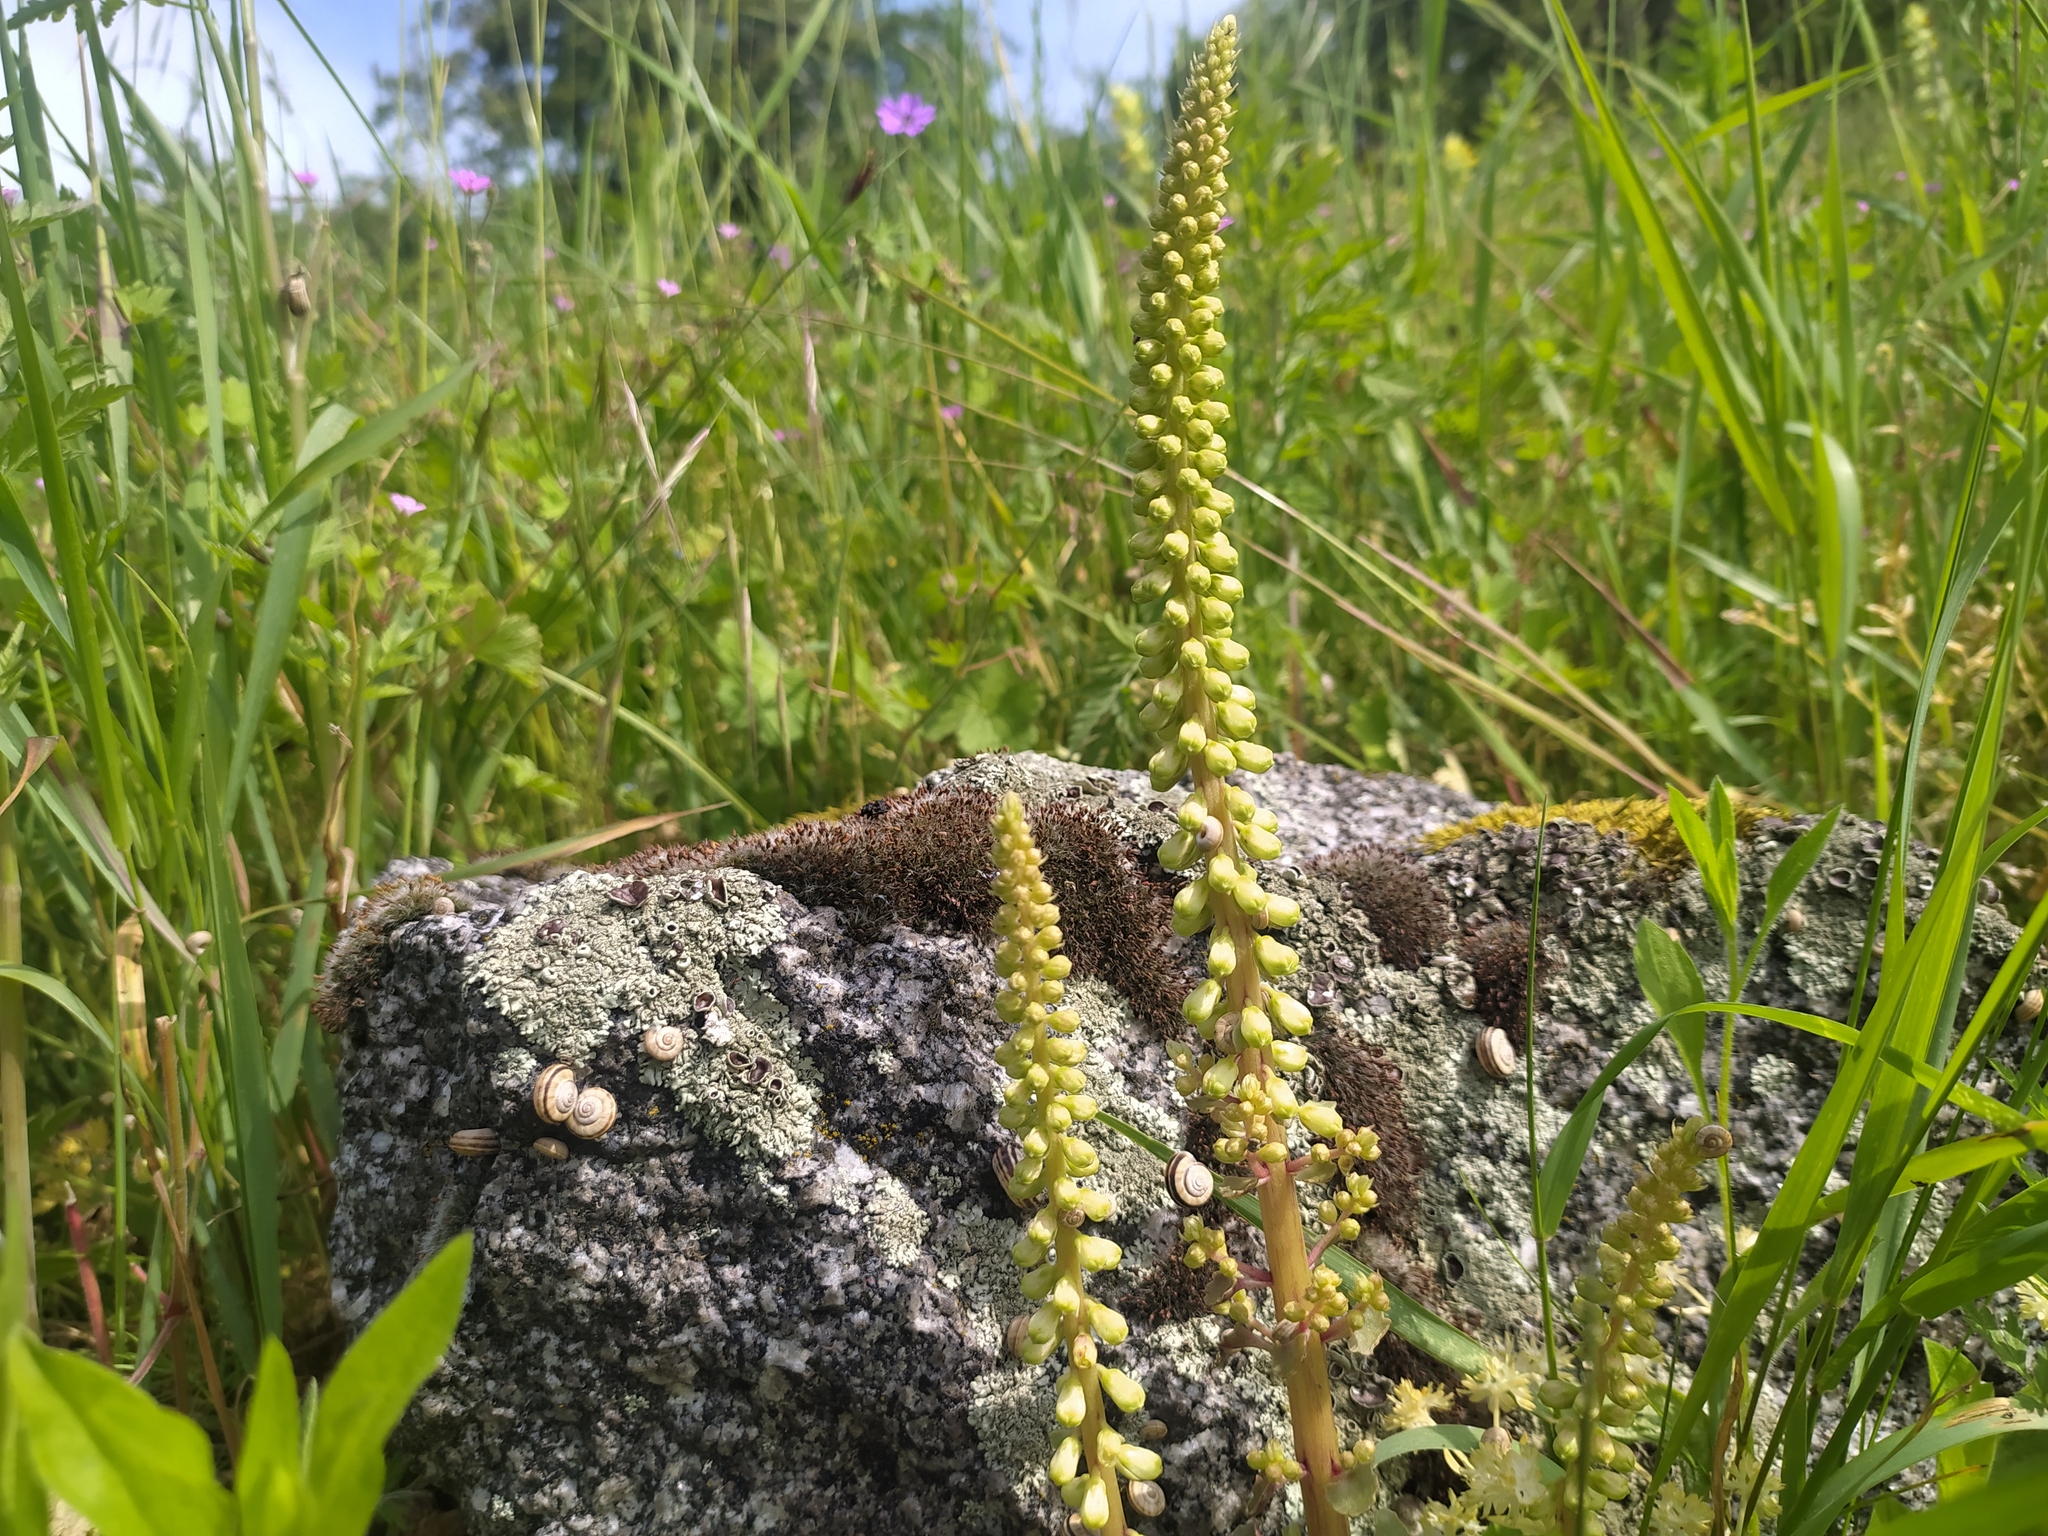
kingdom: Plantae
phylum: Tracheophyta
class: Magnoliopsida
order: Saxifragales
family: Crassulaceae
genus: Umbilicus
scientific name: Umbilicus rupestris
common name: Navelwort
